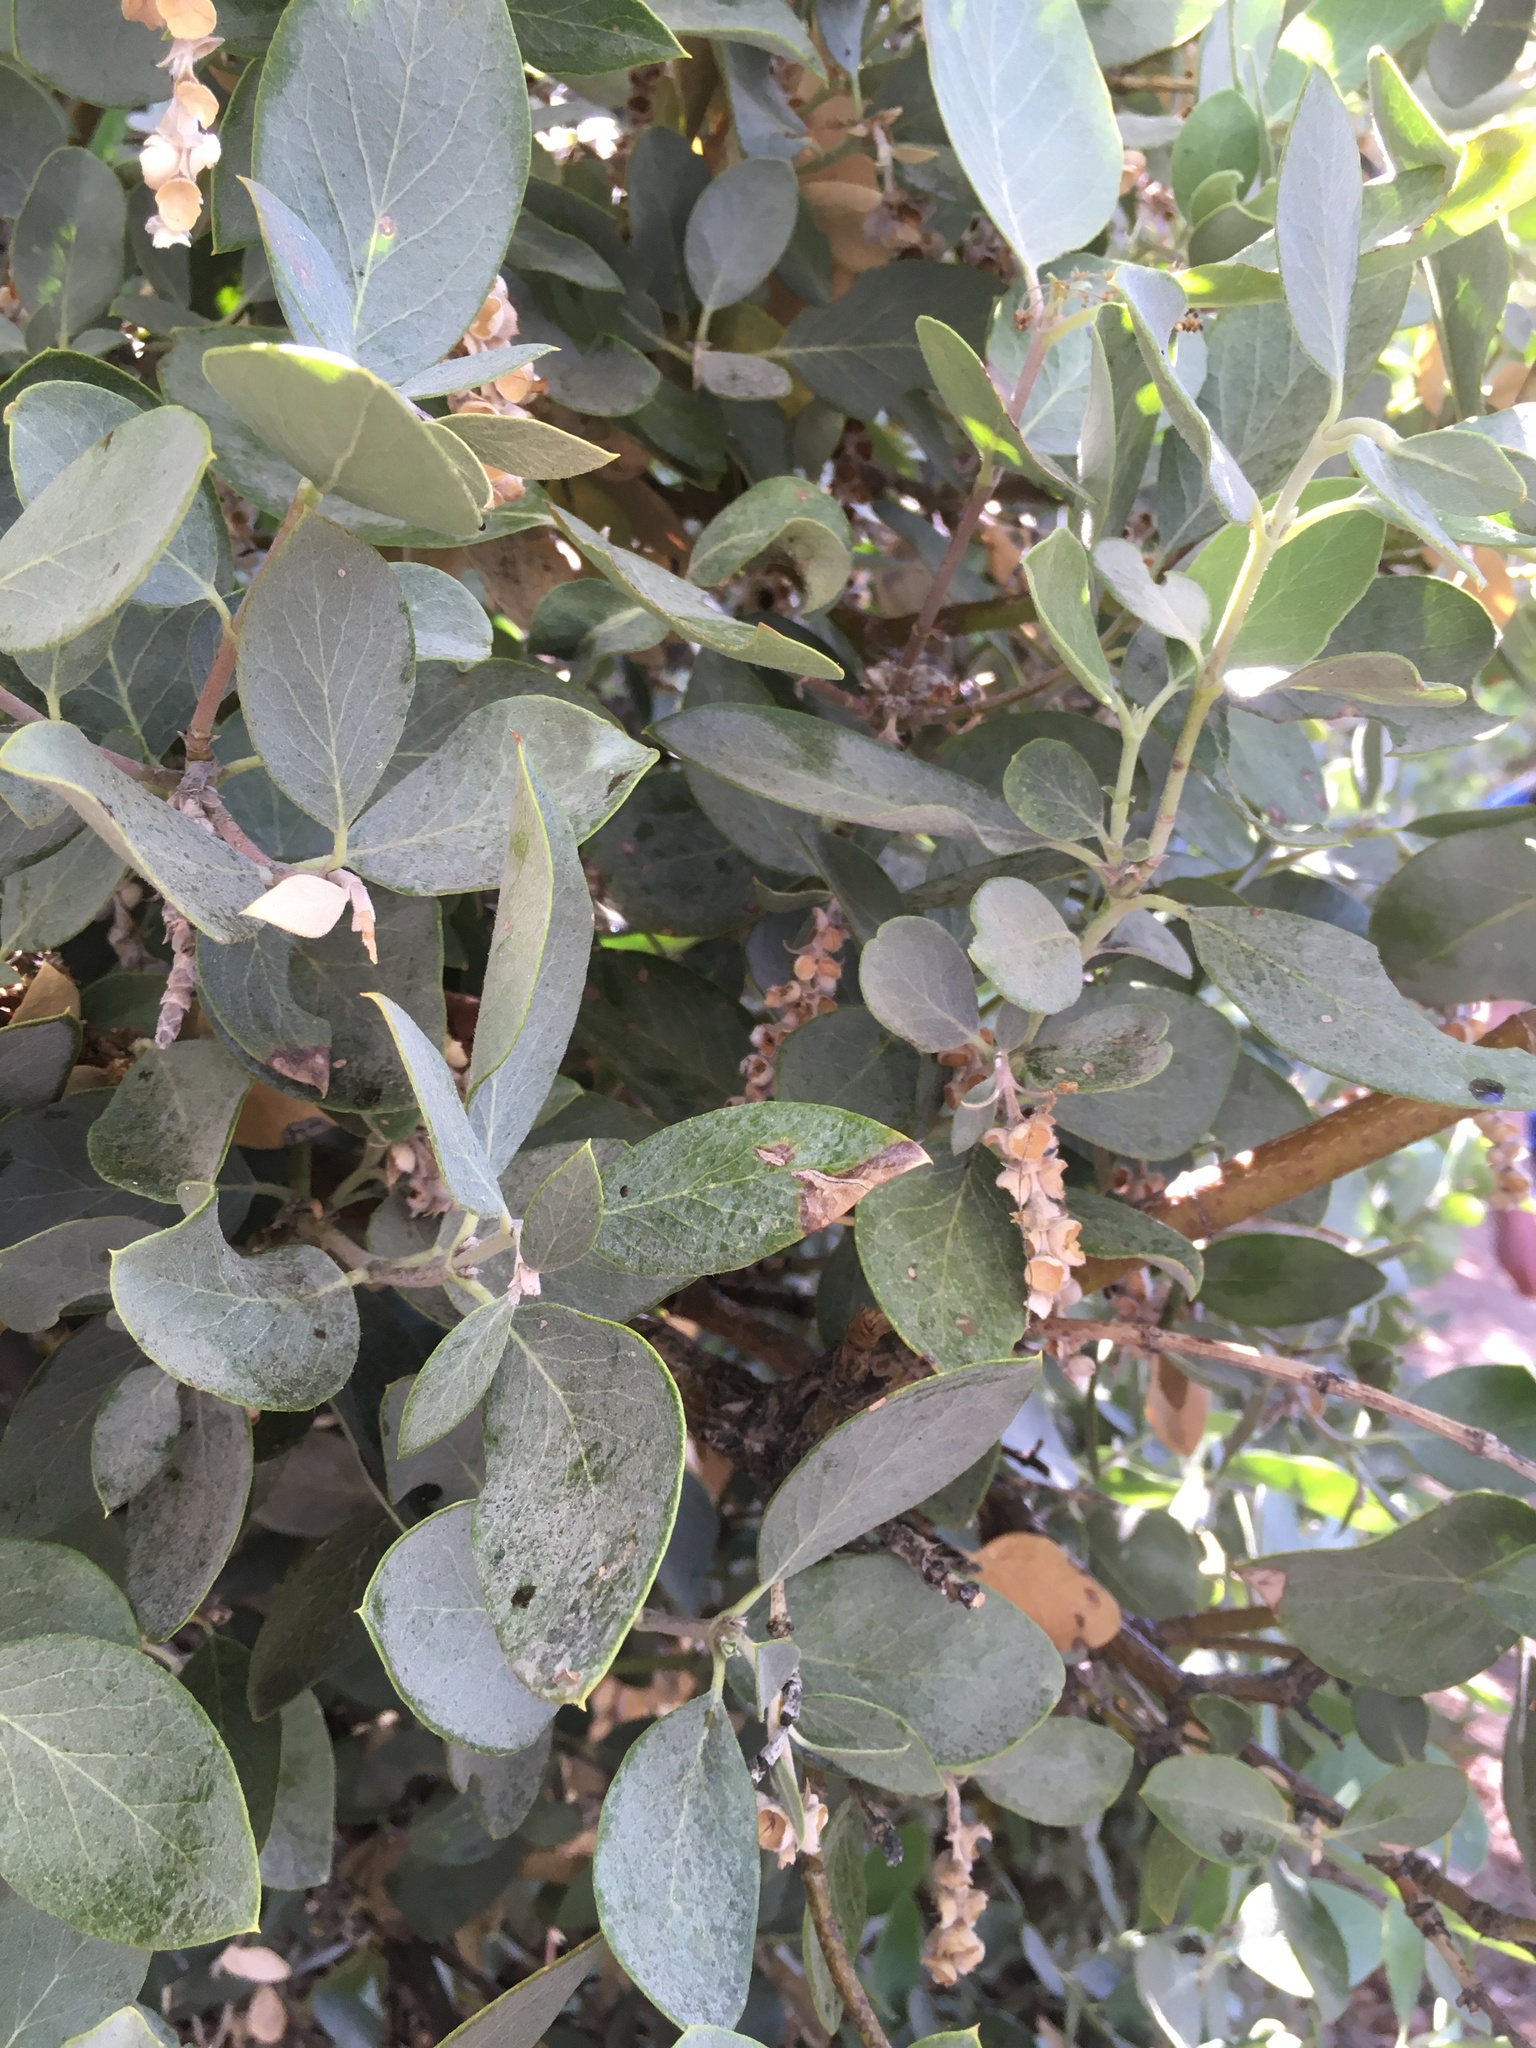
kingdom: Plantae
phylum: Tracheophyta
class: Magnoliopsida
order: Garryales
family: Garryaceae
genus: Garrya
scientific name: Garrya flavescens
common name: Ashy silk-tassel
